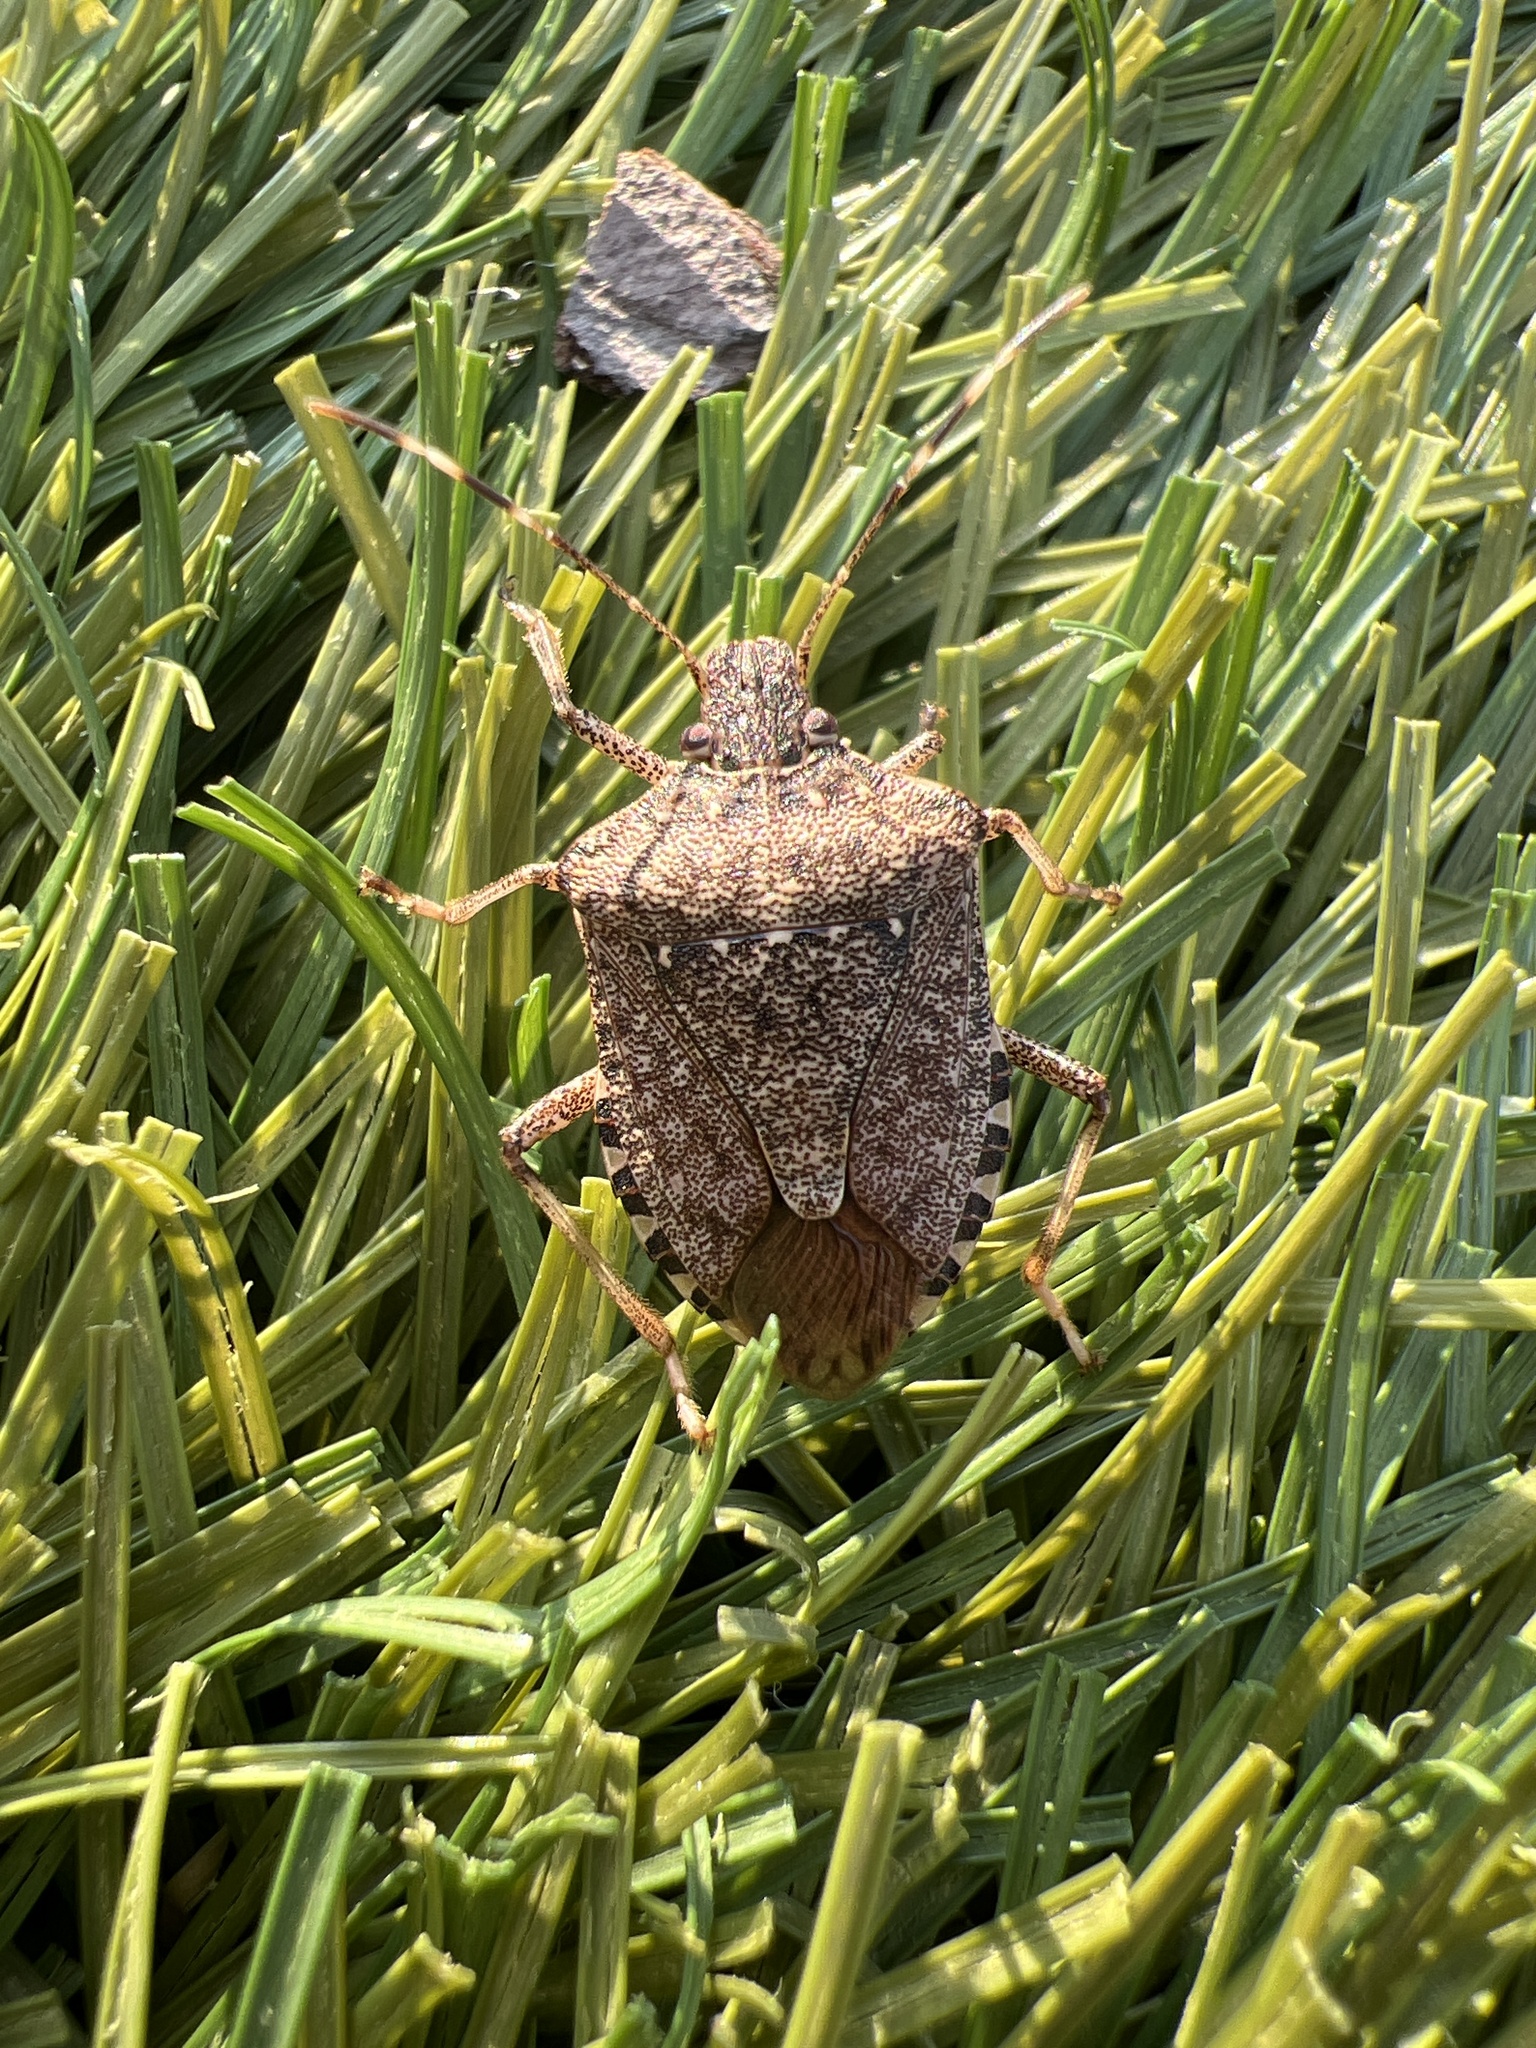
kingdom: Animalia
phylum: Arthropoda
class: Insecta
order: Hemiptera
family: Pentatomidae
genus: Halyomorpha
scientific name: Halyomorpha halys
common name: Brown marmorated stink bug
